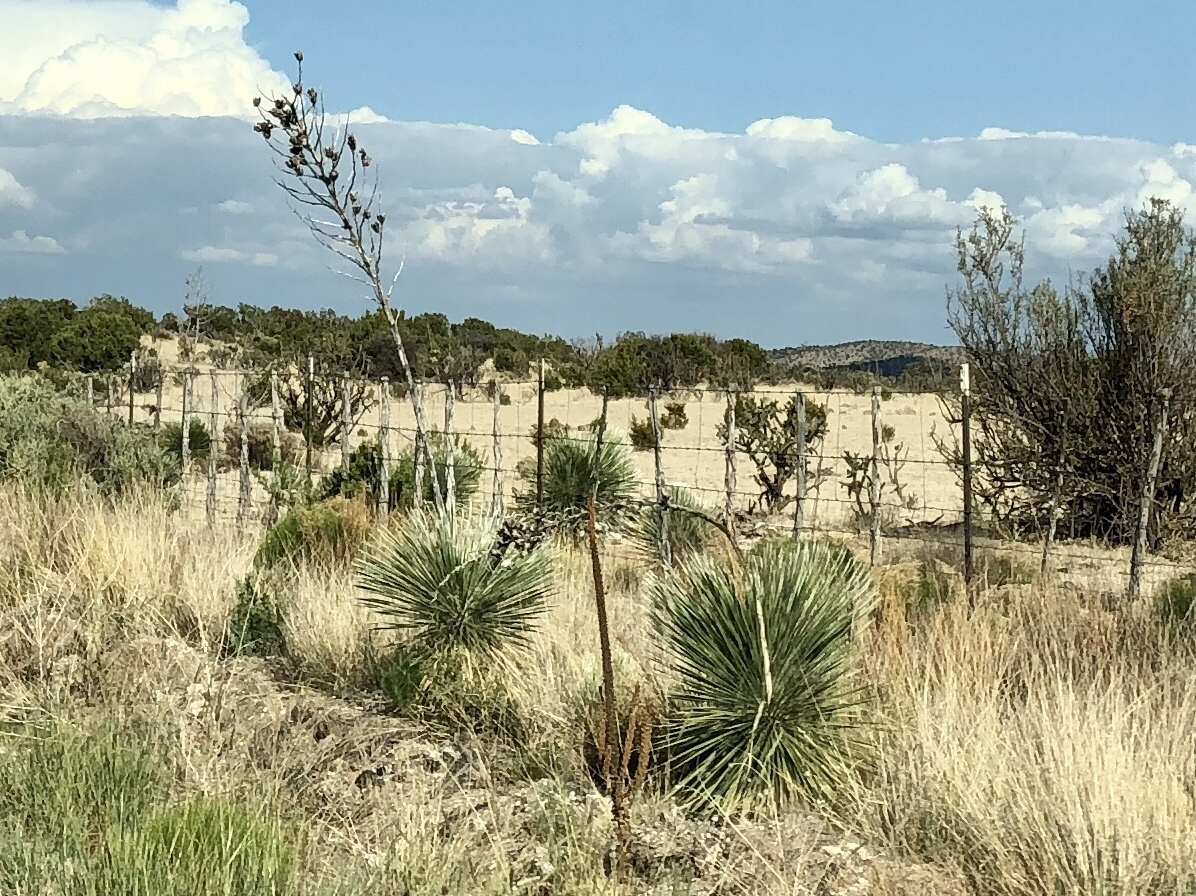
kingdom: Plantae
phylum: Tracheophyta
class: Liliopsida
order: Asparagales
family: Asparagaceae
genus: Yucca
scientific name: Yucca elata
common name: Palmella
